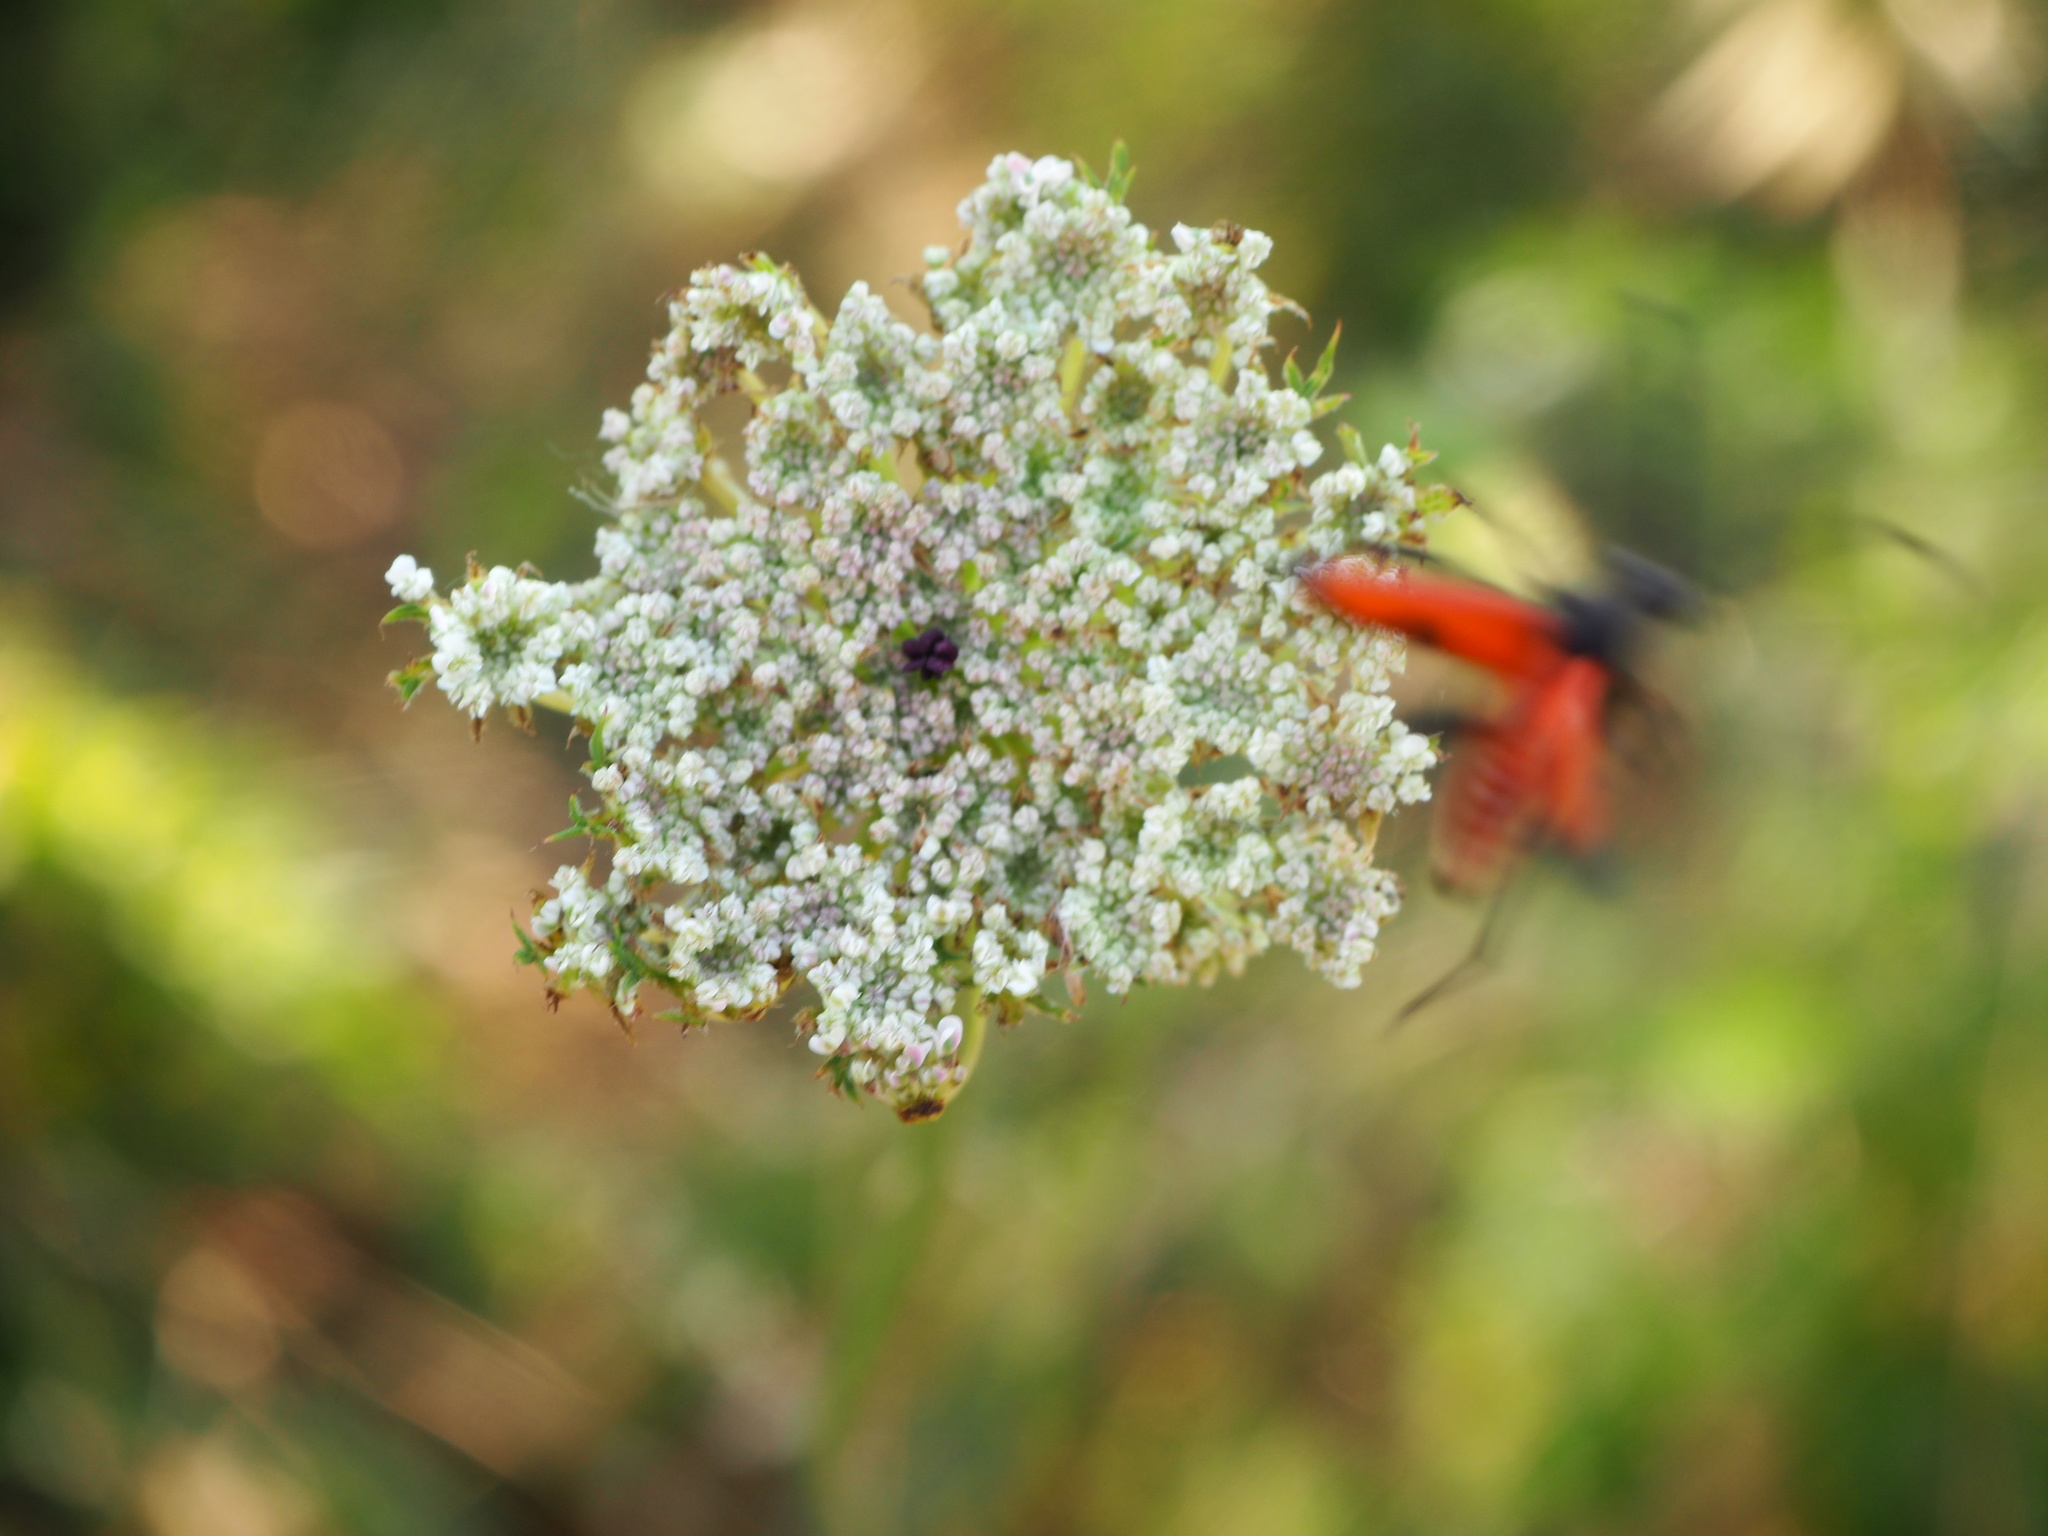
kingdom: Animalia
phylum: Arthropoda
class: Insecta
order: Coleoptera
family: Cerambycidae
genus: Stictoleptura
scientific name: Stictoleptura cordigera
